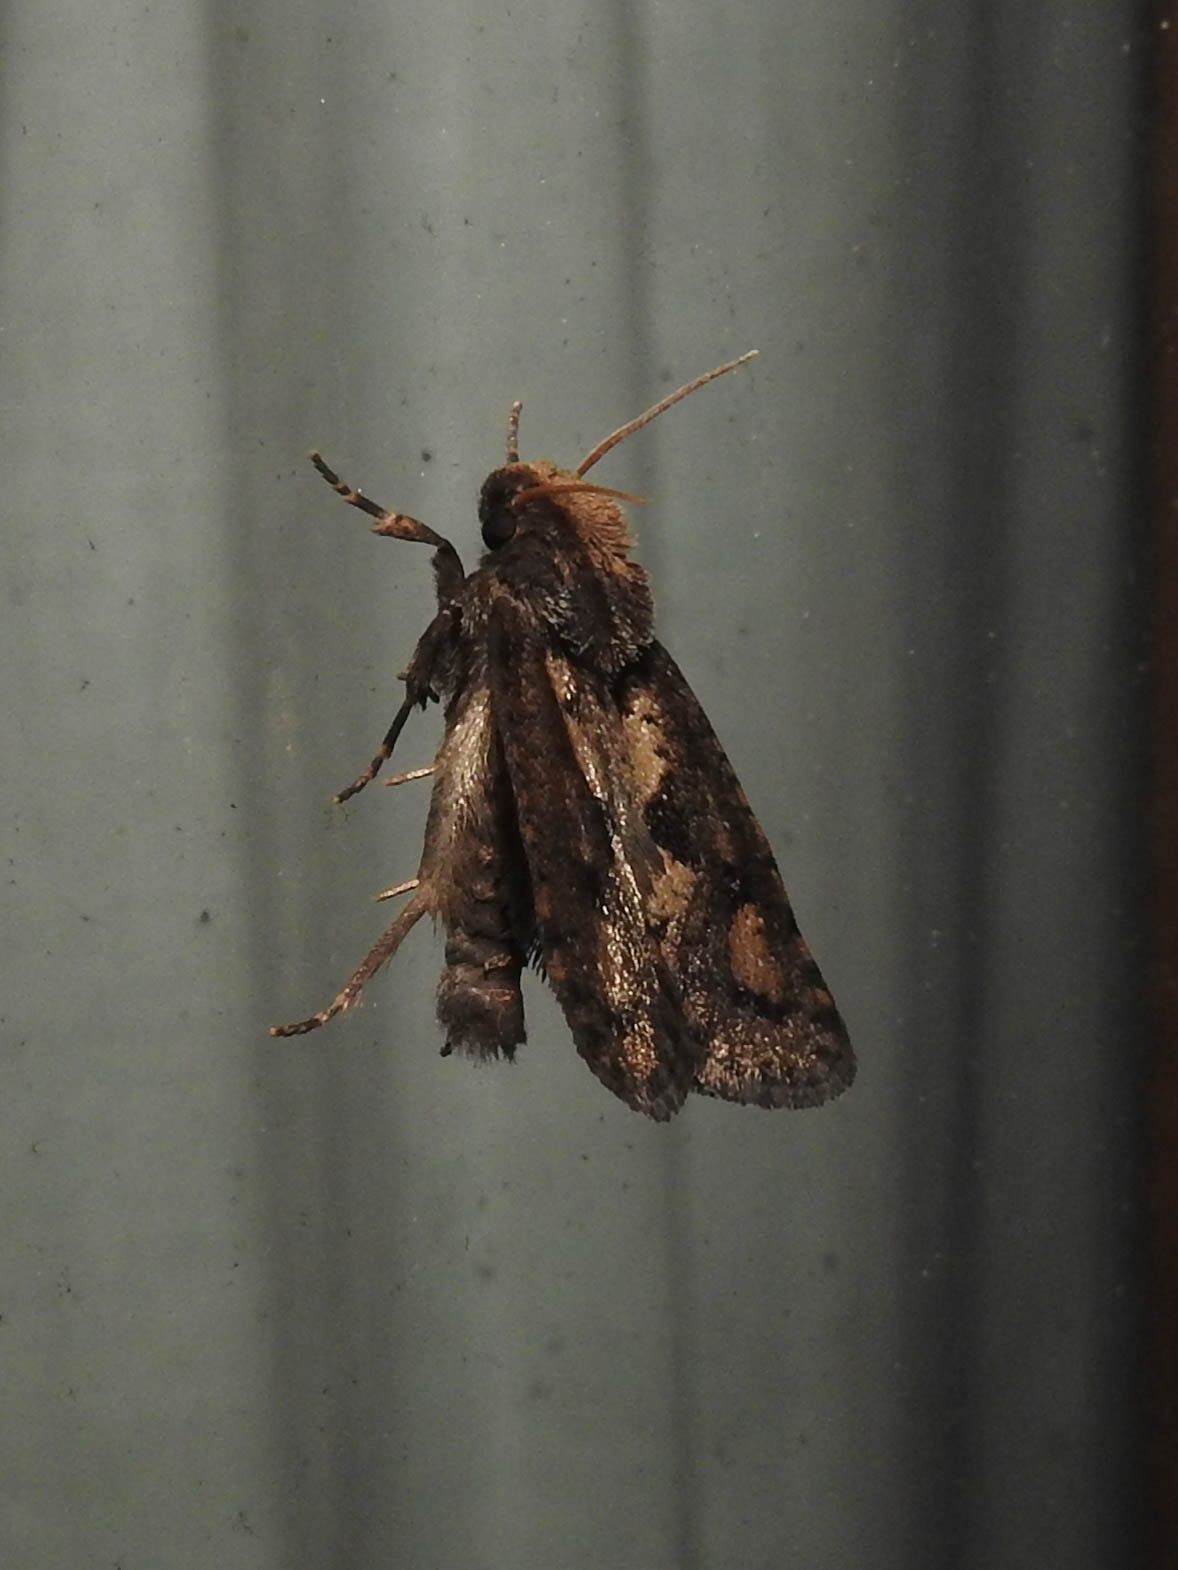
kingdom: Animalia
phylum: Arthropoda
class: Insecta
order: Lepidoptera
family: Tineidae
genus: Acrolophus
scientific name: Acrolophus popeanella
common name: Clemens' grass tubeworm moth
